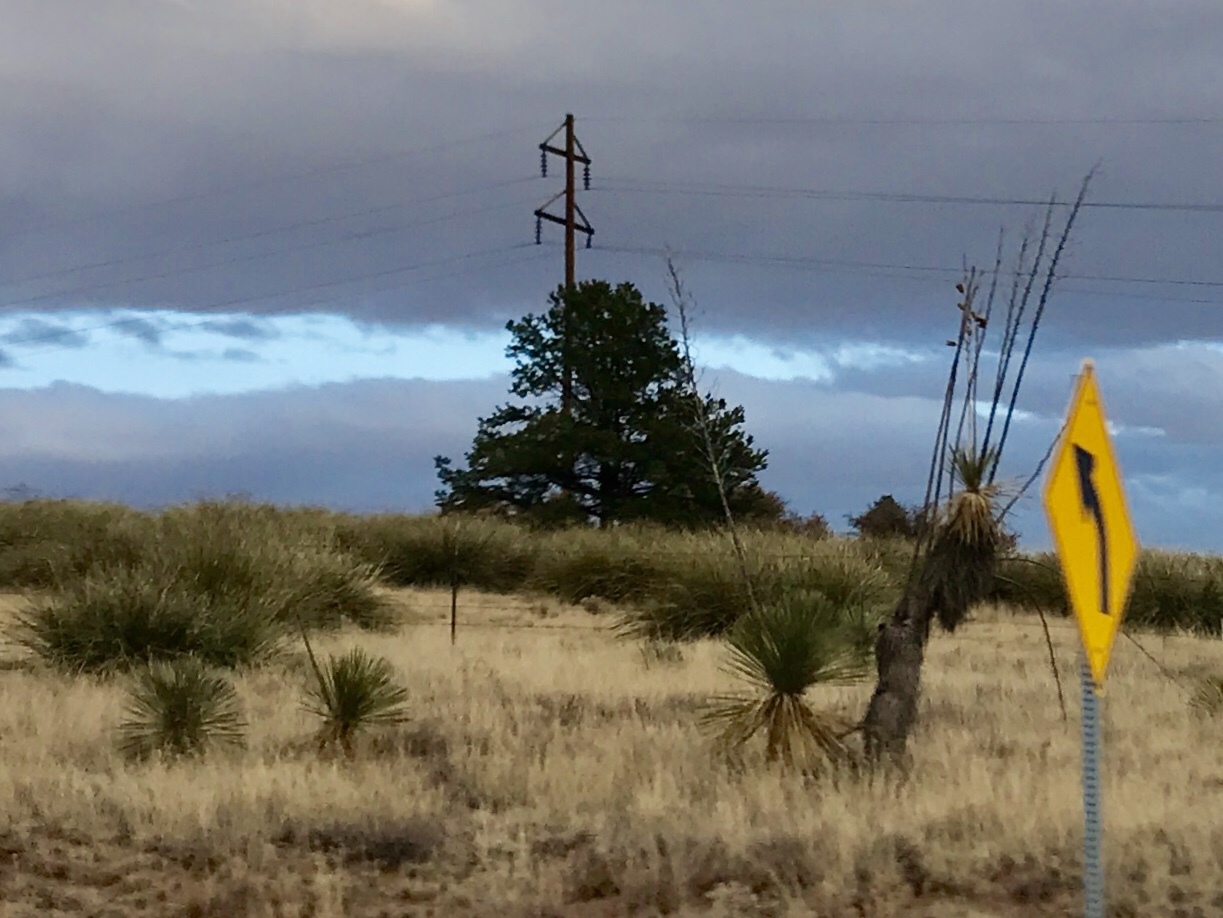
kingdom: Plantae
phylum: Tracheophyta
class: Liliopsida
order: Asparagales
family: Asparagaceae
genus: Yucca
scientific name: Yucca elata
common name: Palmella
